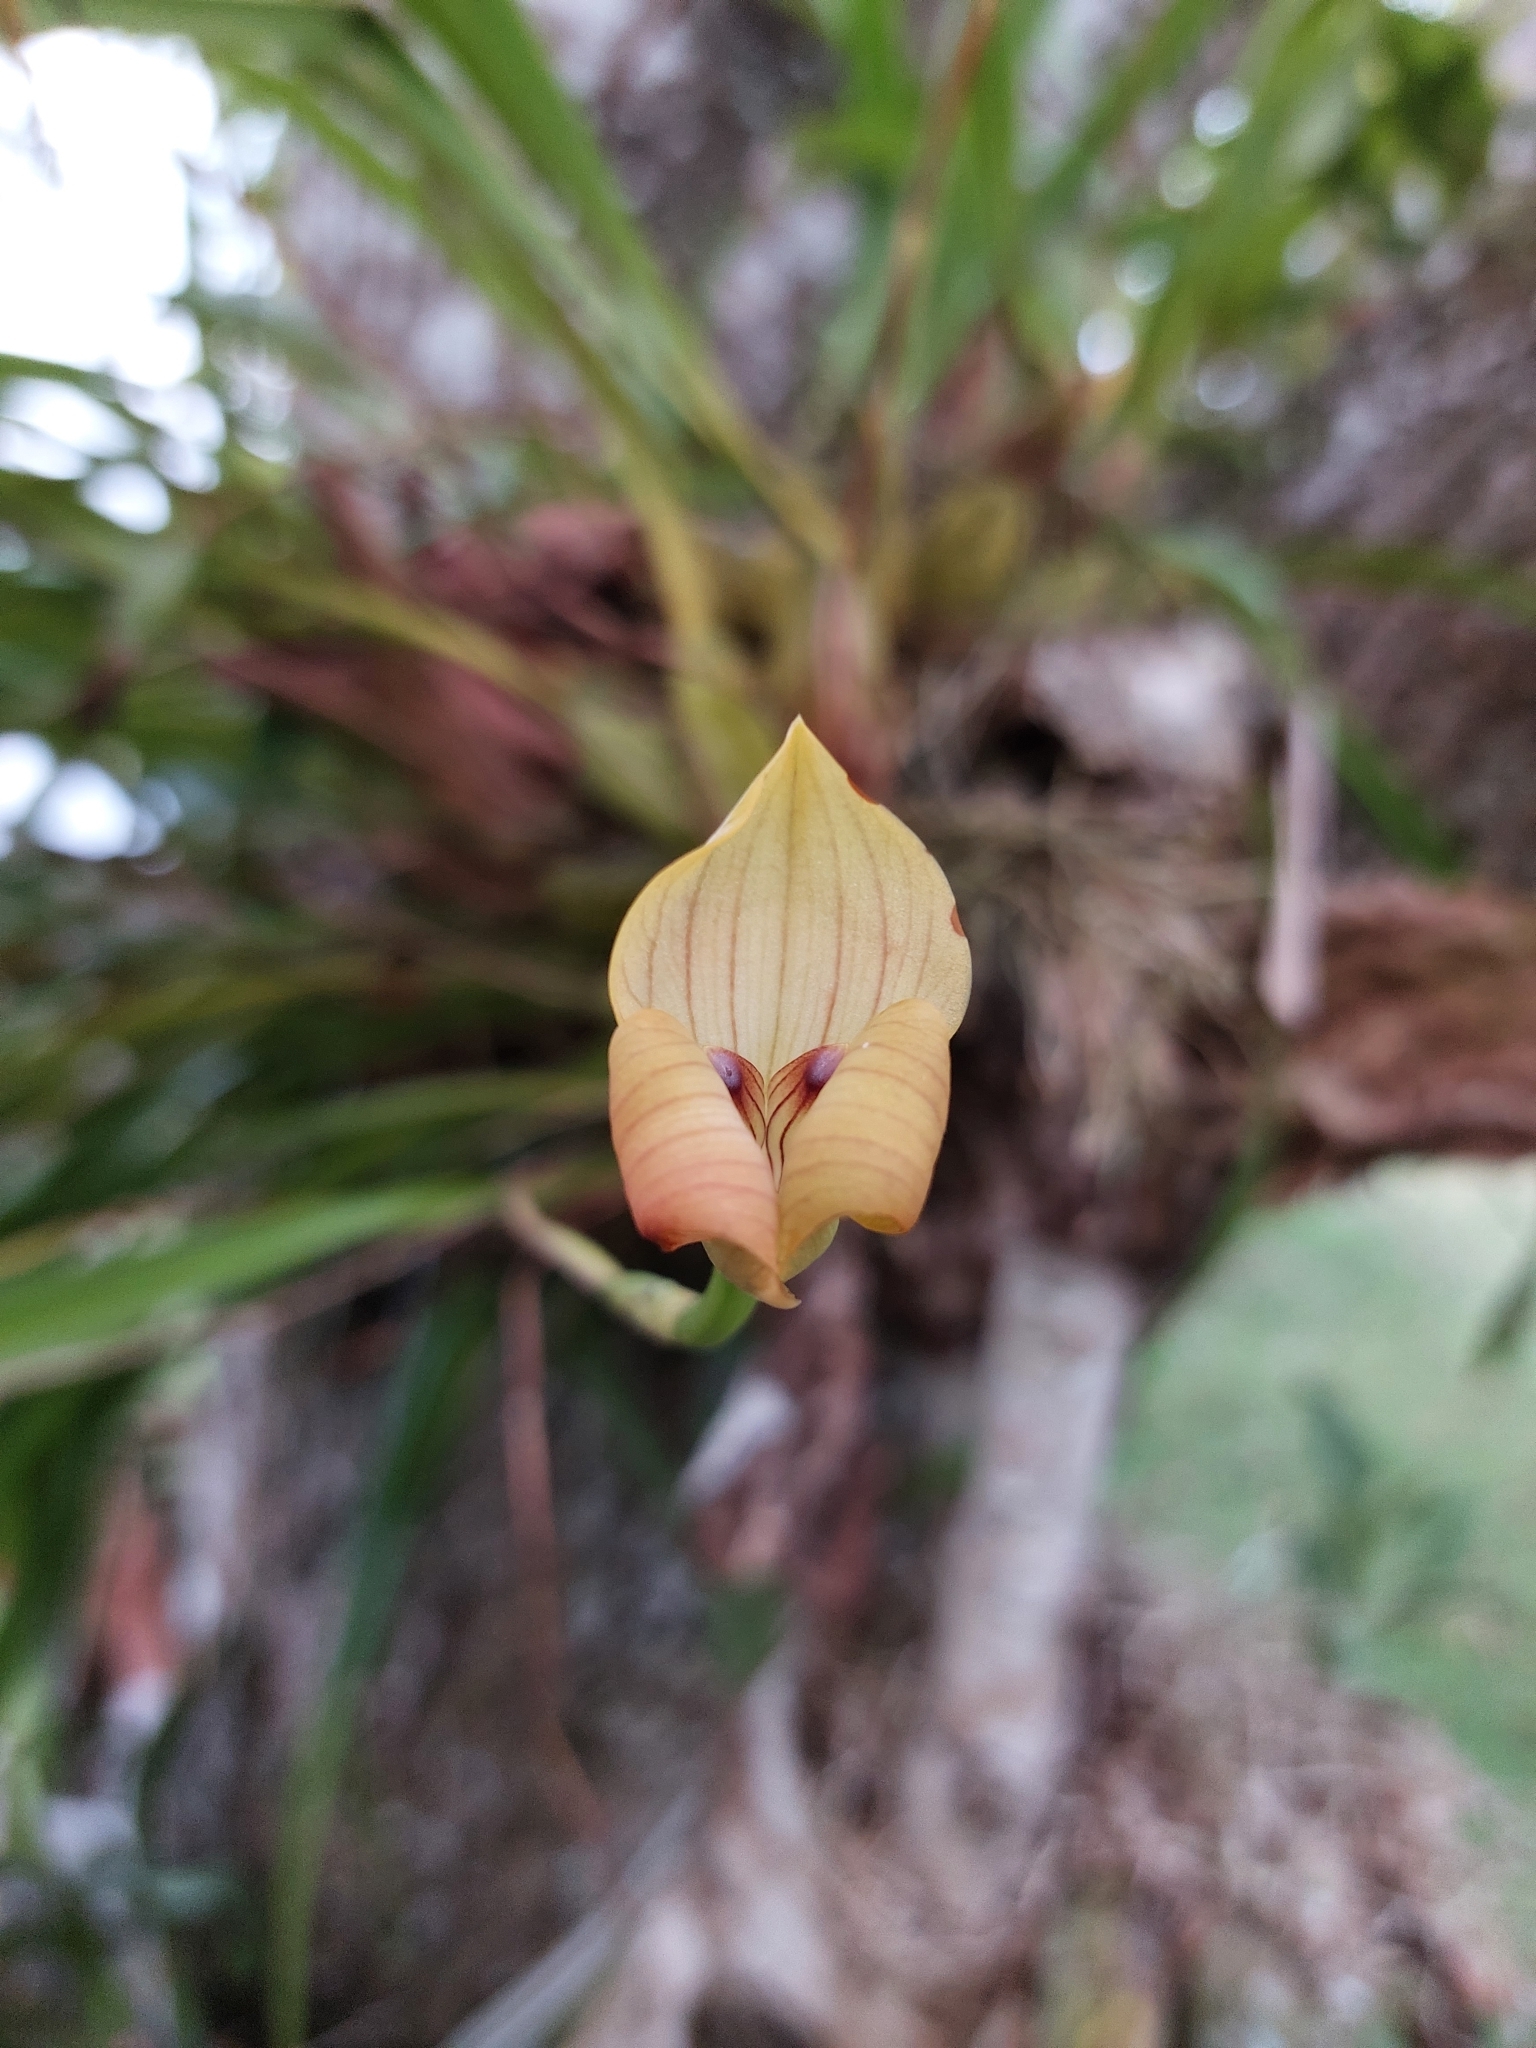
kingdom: Plantae
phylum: Tracheophyta
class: Liliopsida
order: Asparagales
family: Orchidaceae
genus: Maxillaria
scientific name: Maxillaria egertoniana
